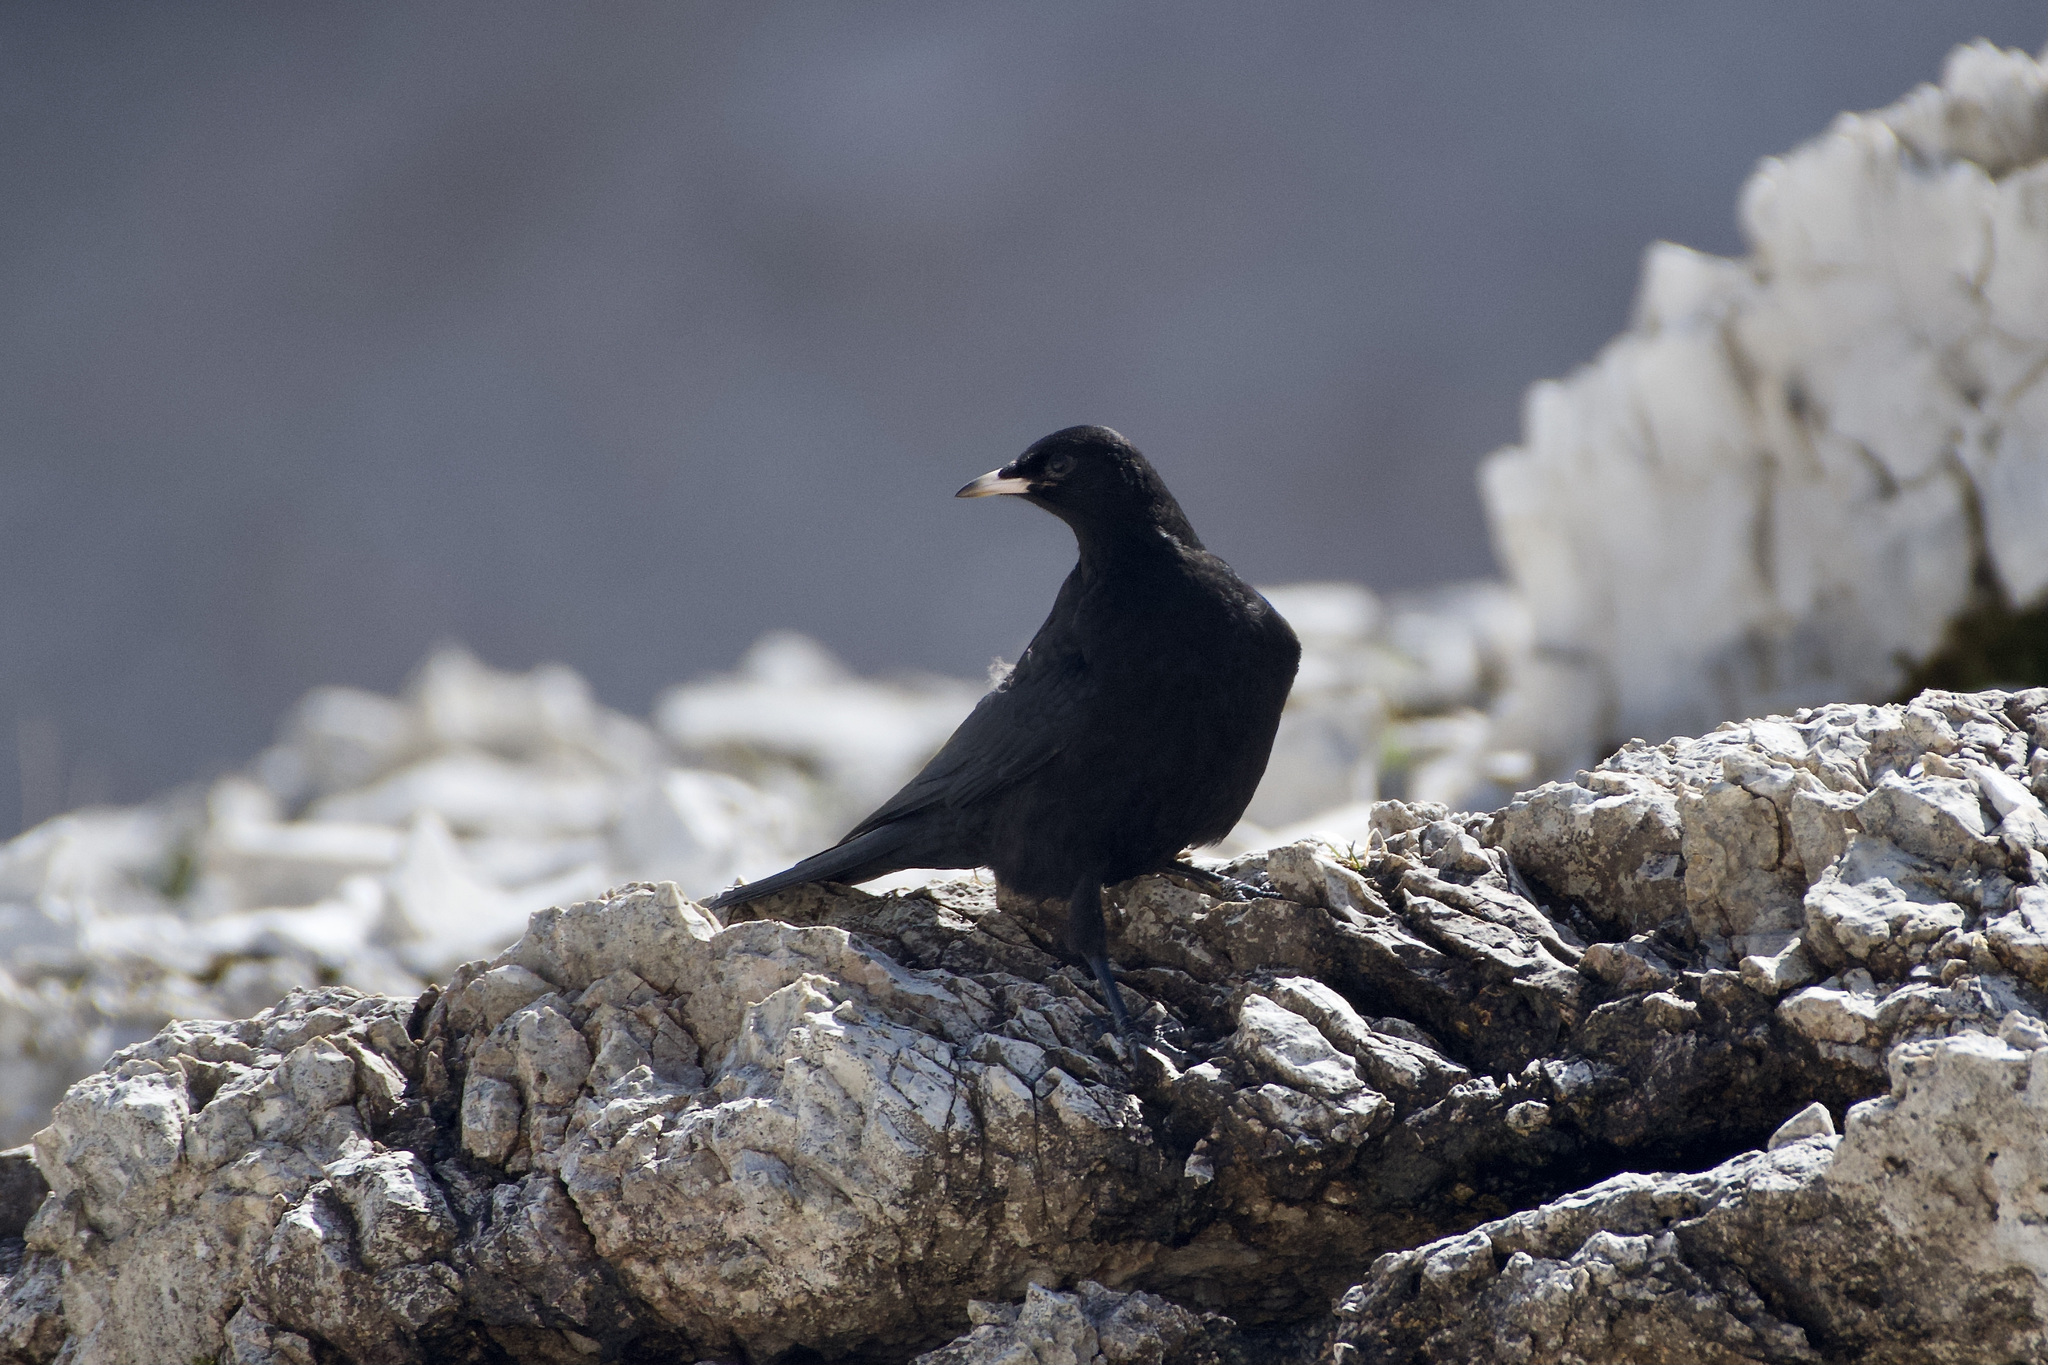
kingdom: Animalia
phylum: Chordata
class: Aves
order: Passeriformes
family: Corvidae
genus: Pyrrhocorax
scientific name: Pyrrhocorax graculus
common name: Alpine chough
